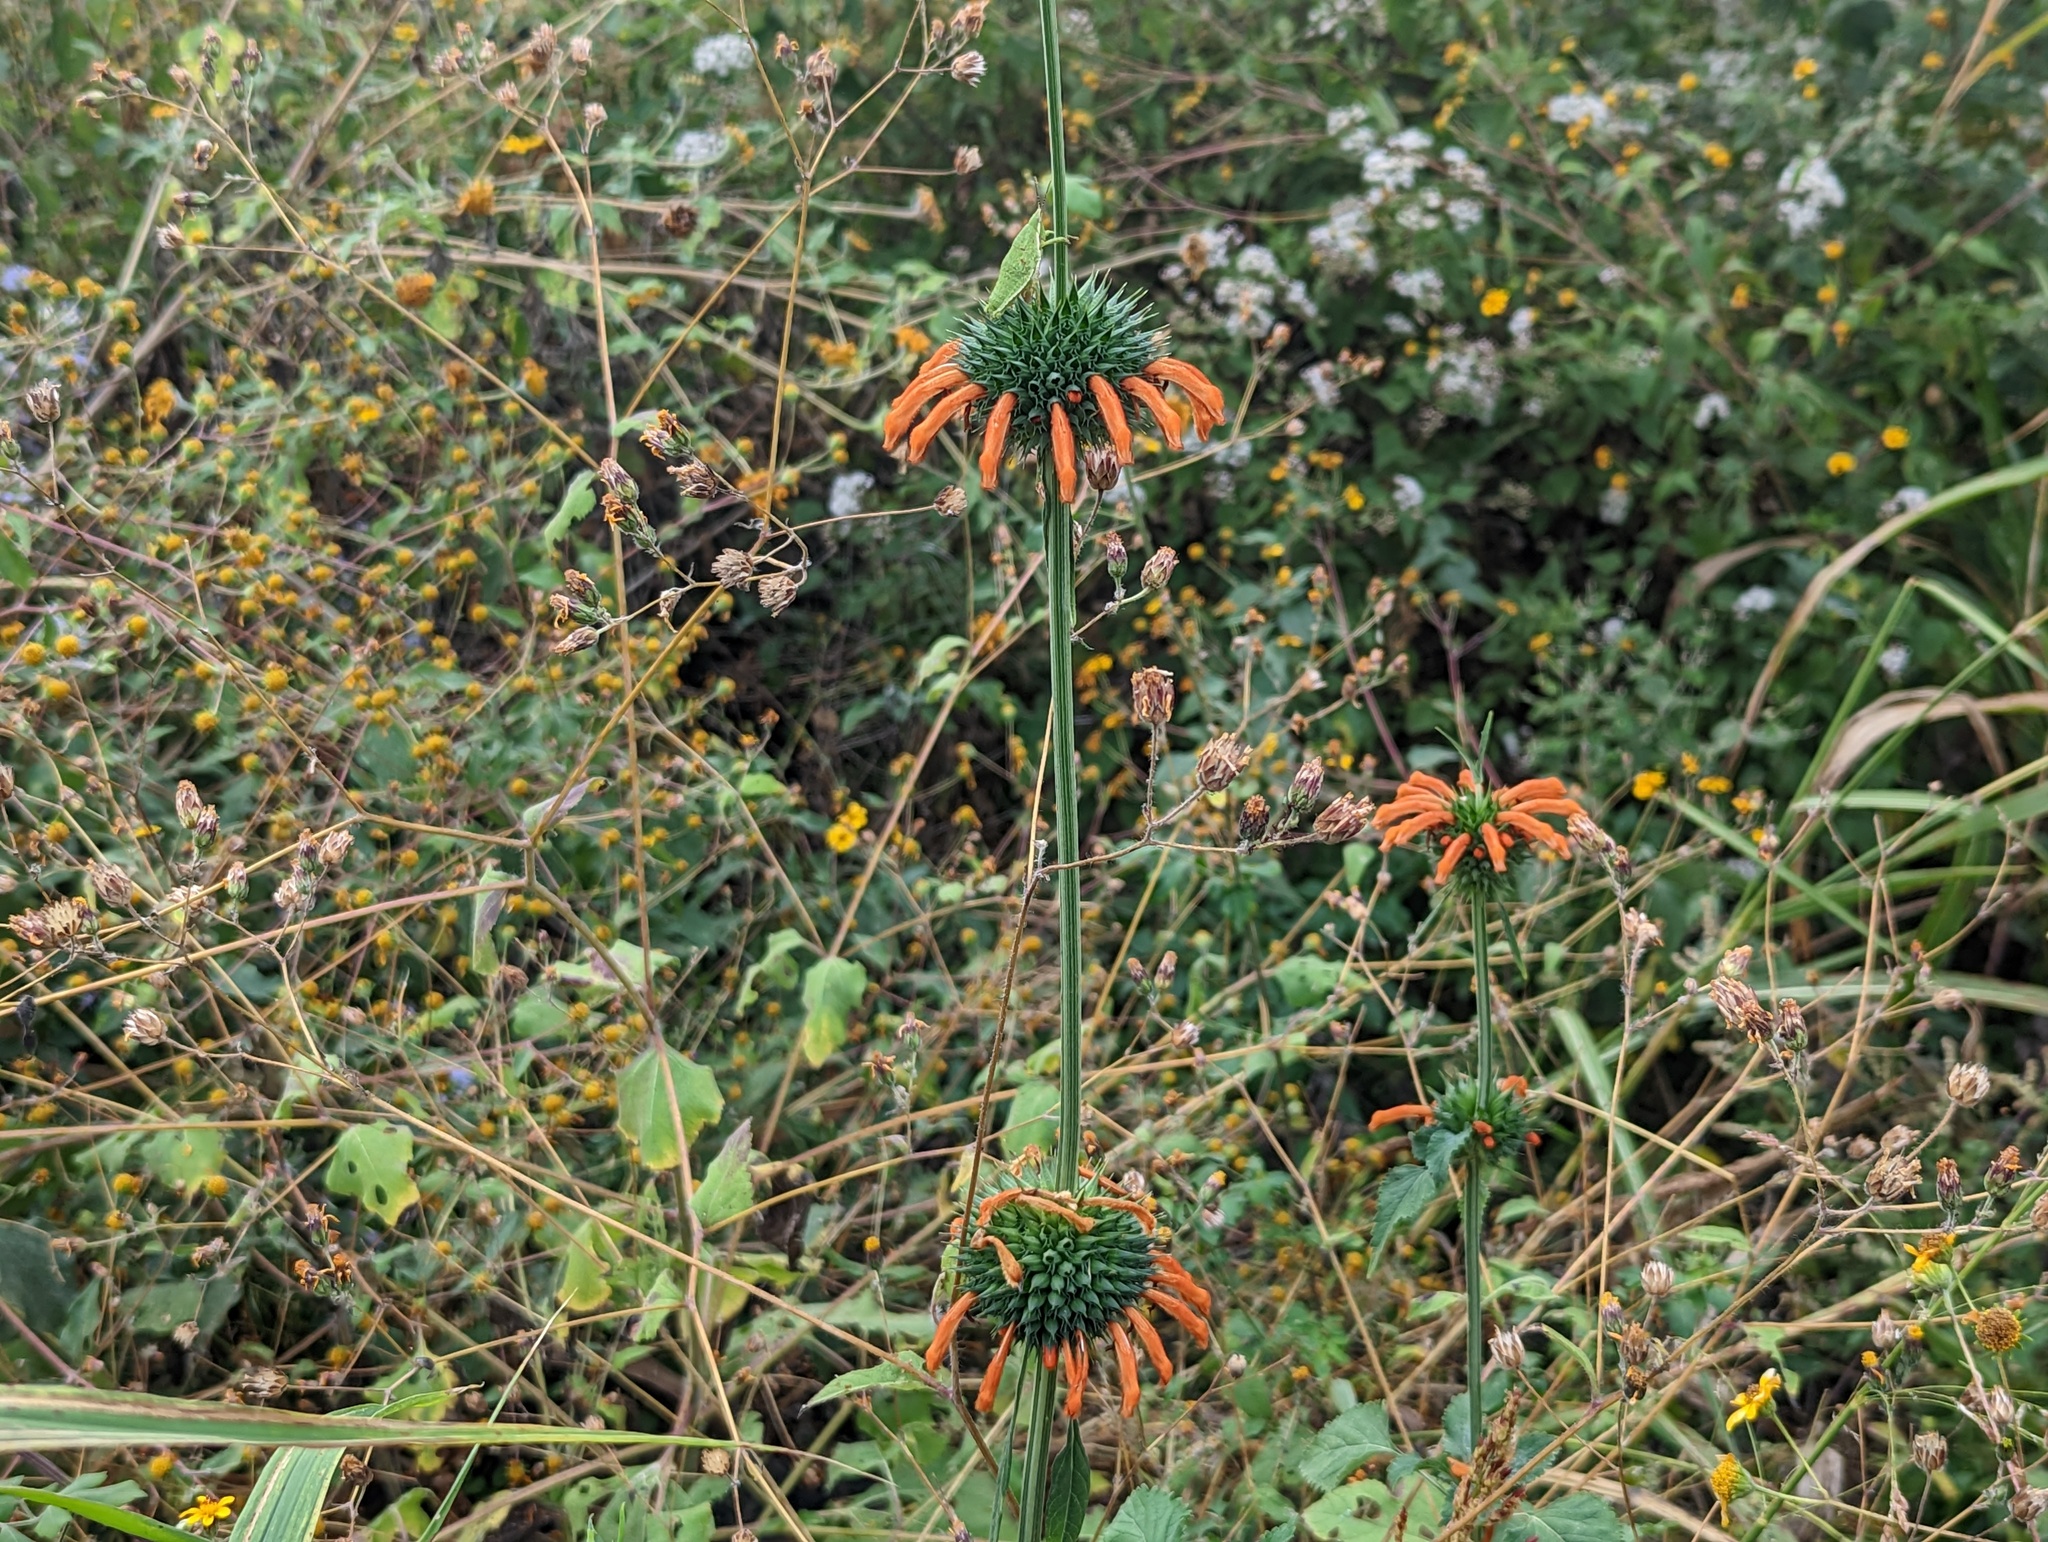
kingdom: Plantae
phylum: Tracheophyta
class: Magnoliopsida
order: Lamiales
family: Lamiaceae
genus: Leonotis
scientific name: Leonotis nepetifolia
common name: Christmas candlestick
